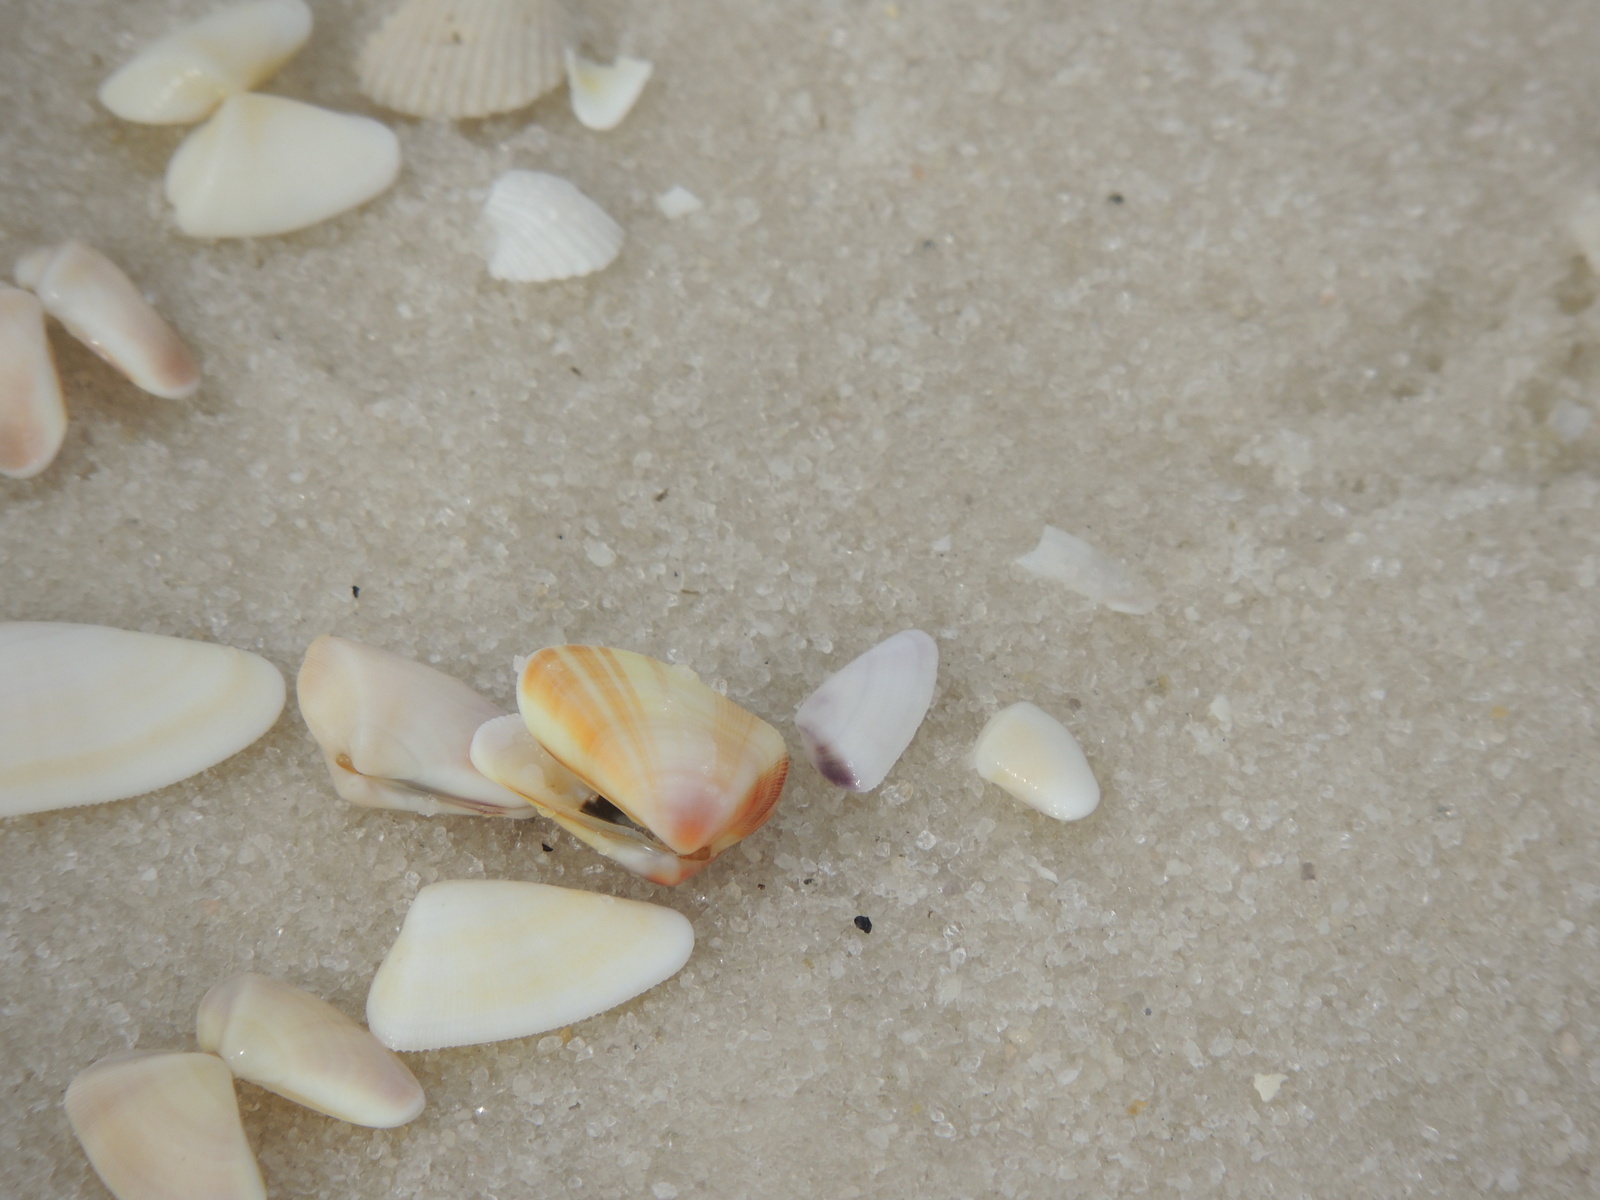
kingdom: Animalia
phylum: Mollusca
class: Bivalvia
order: Cardiida
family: Donacidae
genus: Donax
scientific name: Donax variabilis
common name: Butterfly shell
